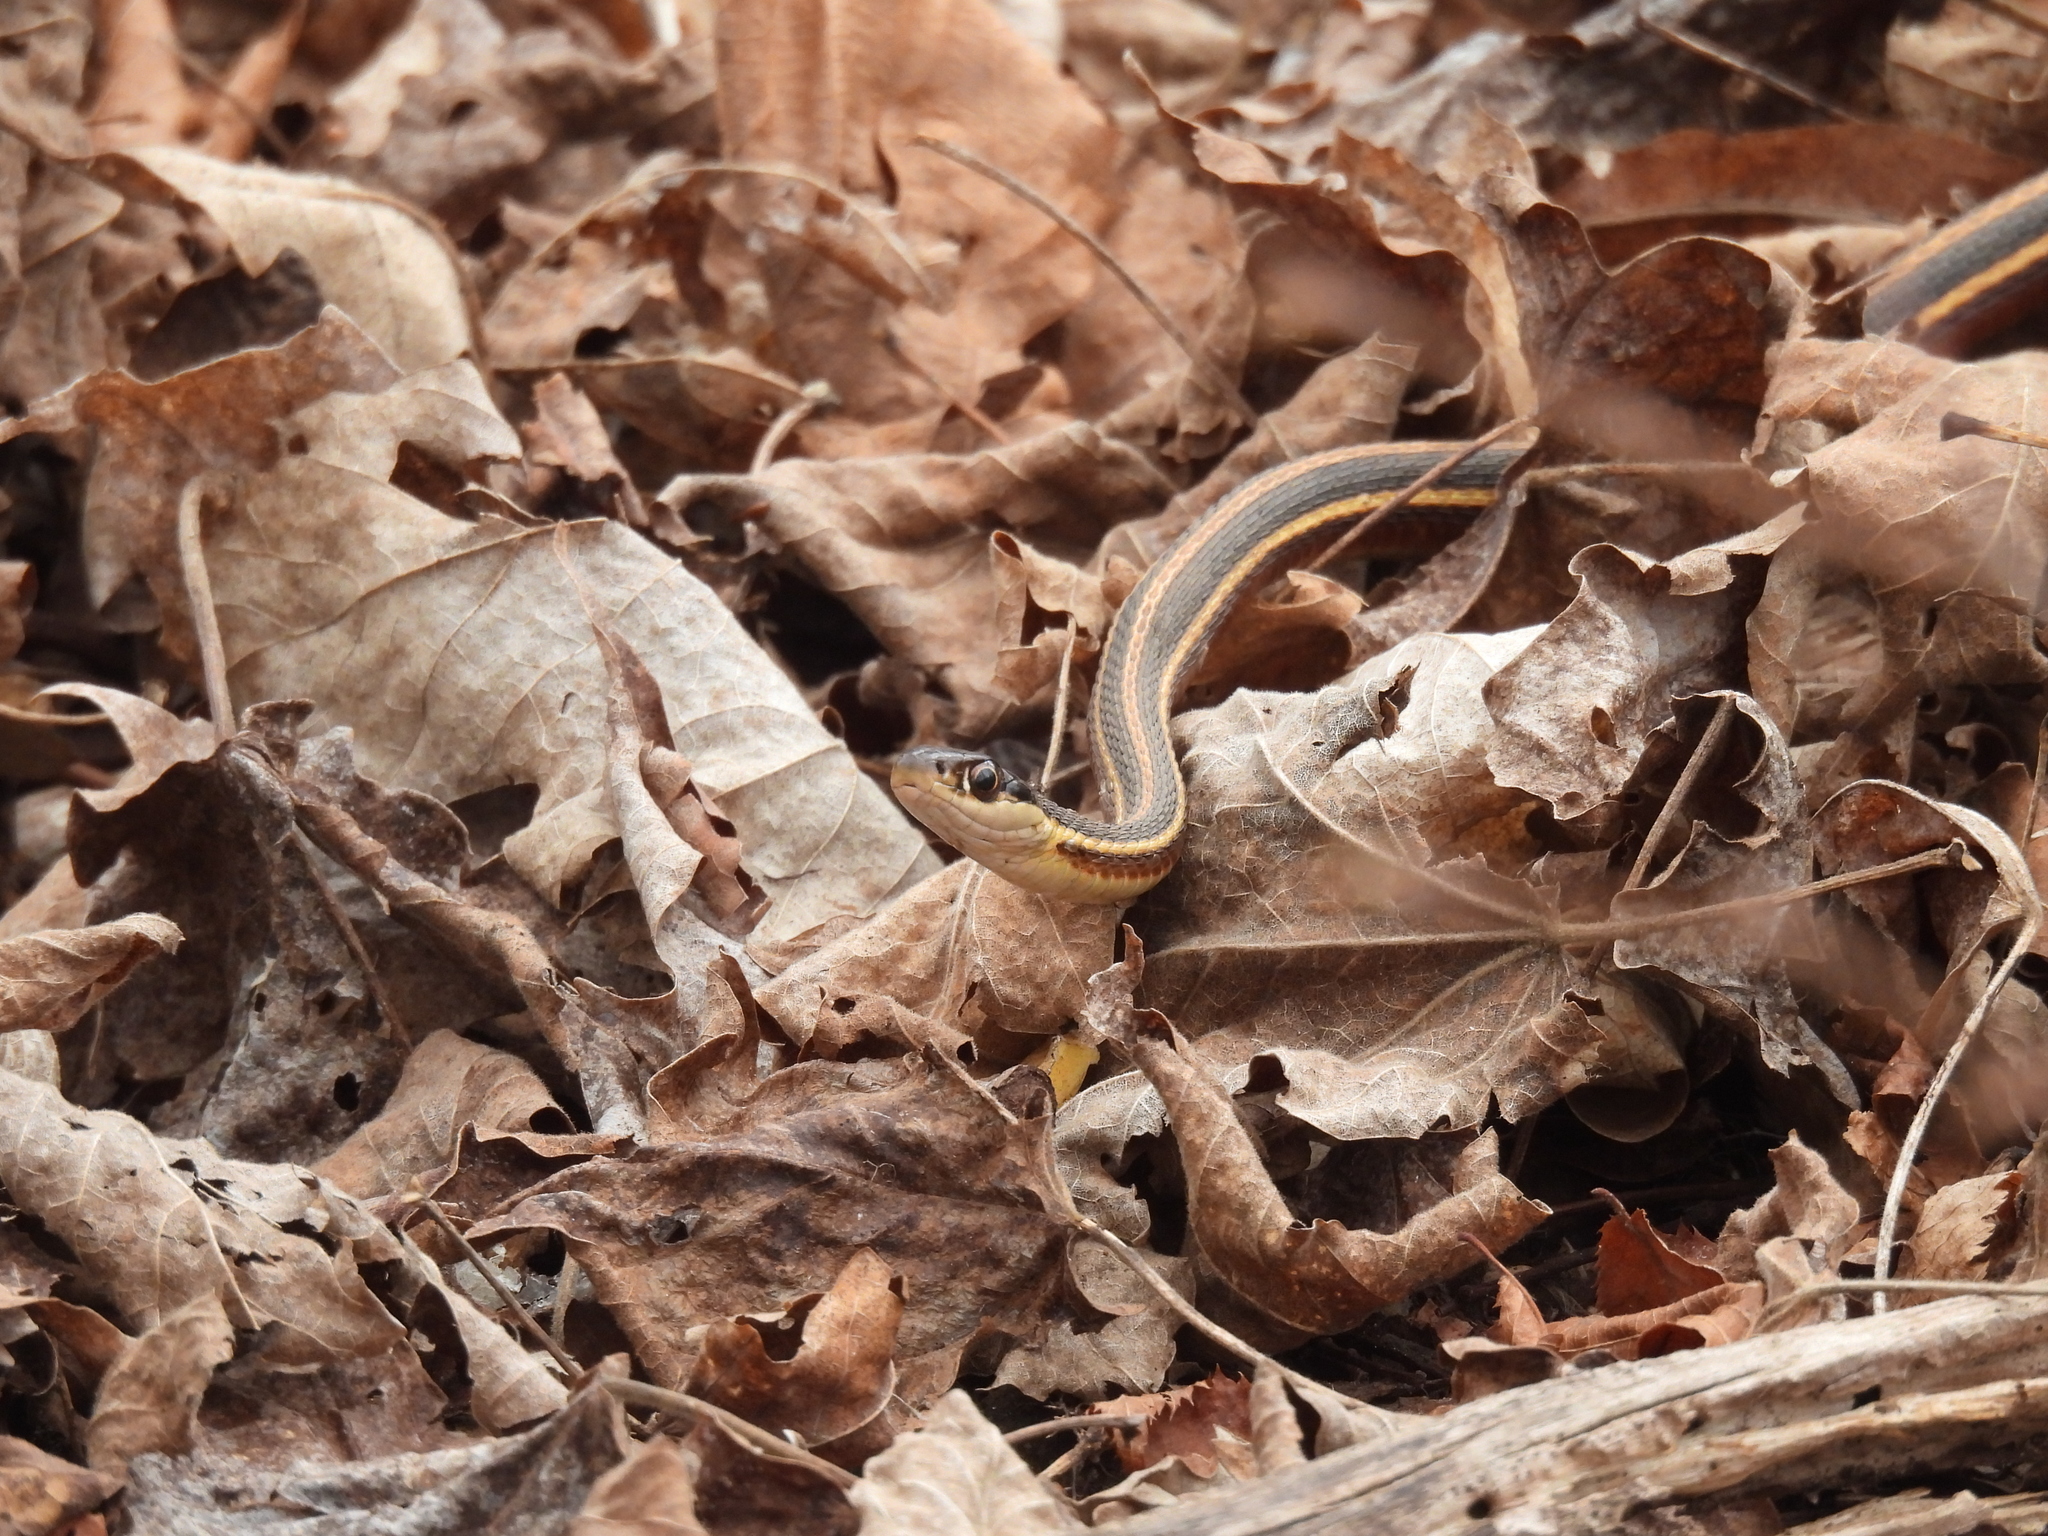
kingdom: Animalia
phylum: Chordata
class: Squamata
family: Colubridae
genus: Thamnophis
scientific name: Thamnophis saurita
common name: Eastern ribbonsnake
